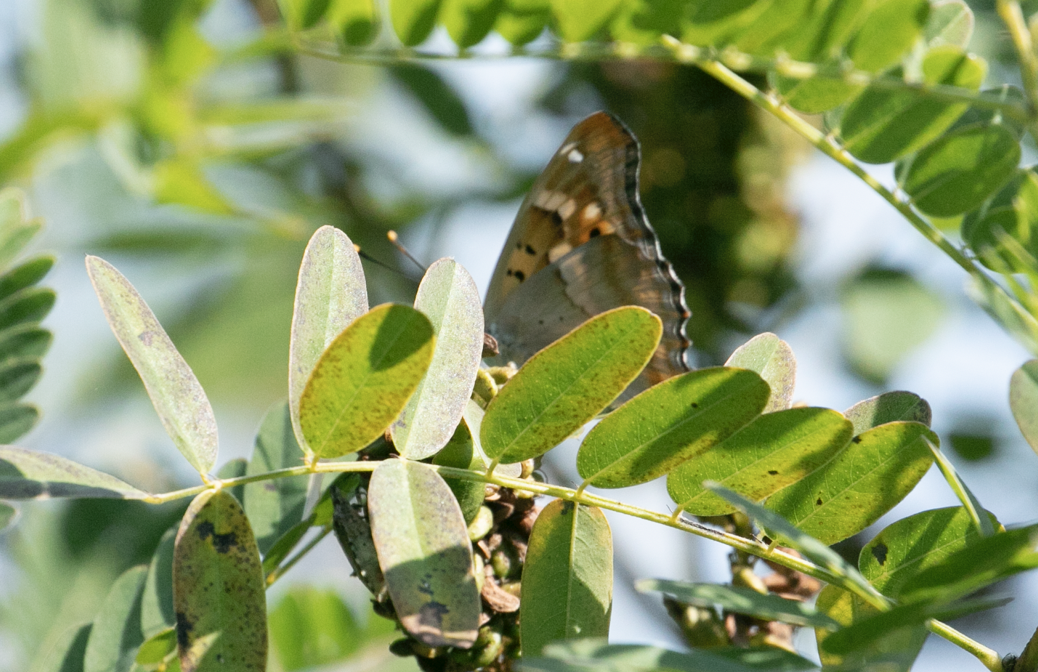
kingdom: Animalia
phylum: Arthropoda
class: Insecta
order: Lepidoptera
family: Nymphalidae
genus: Apatura
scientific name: Apatura ilia
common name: Lesser purple emperor
